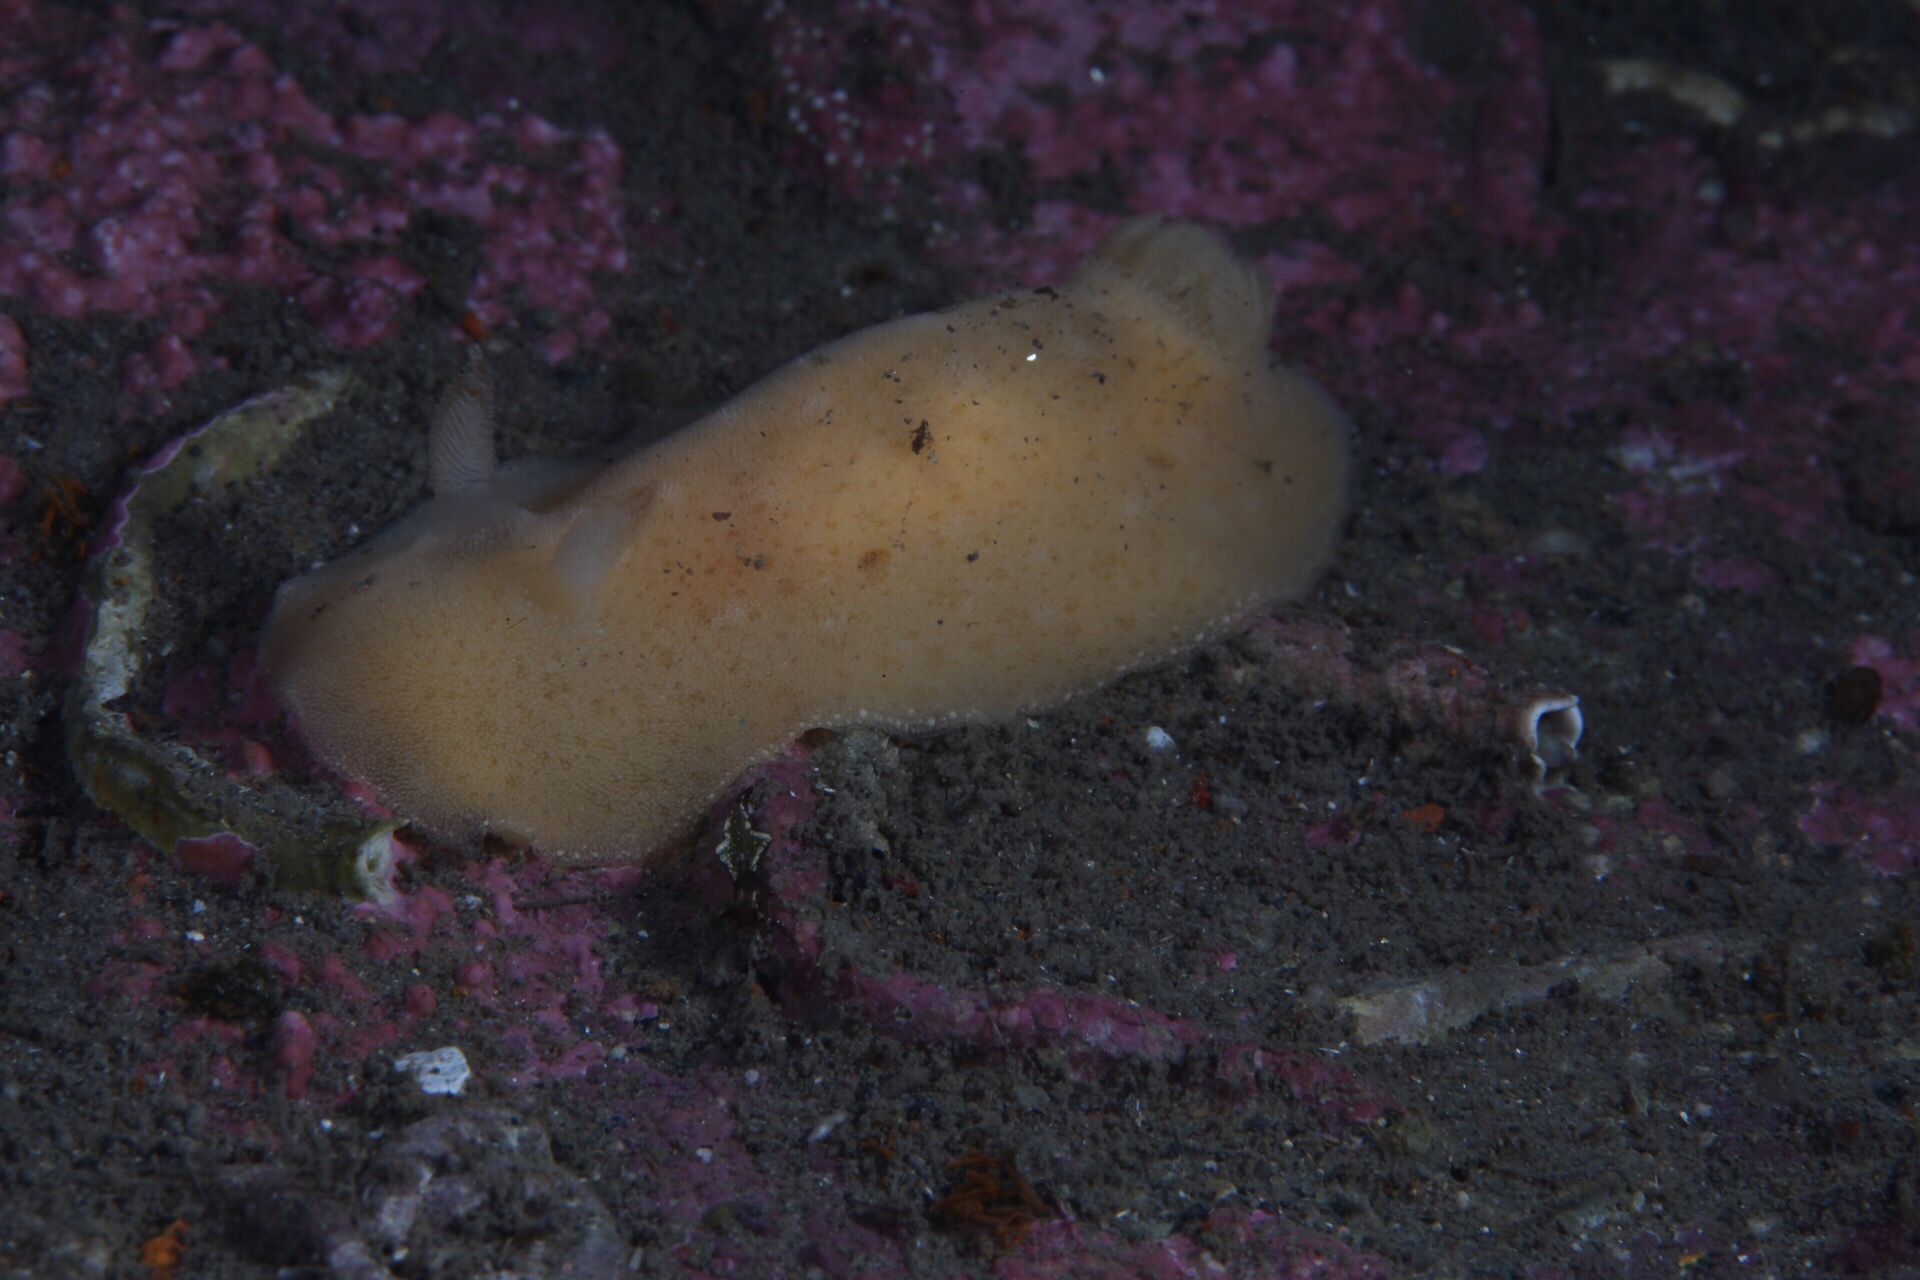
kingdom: Animalia
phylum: Mollusca
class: Gastropoda
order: Nudibranchia
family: Discodorididae
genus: Jorunna
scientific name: Jorunna tomentosa
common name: Grey sea slug
